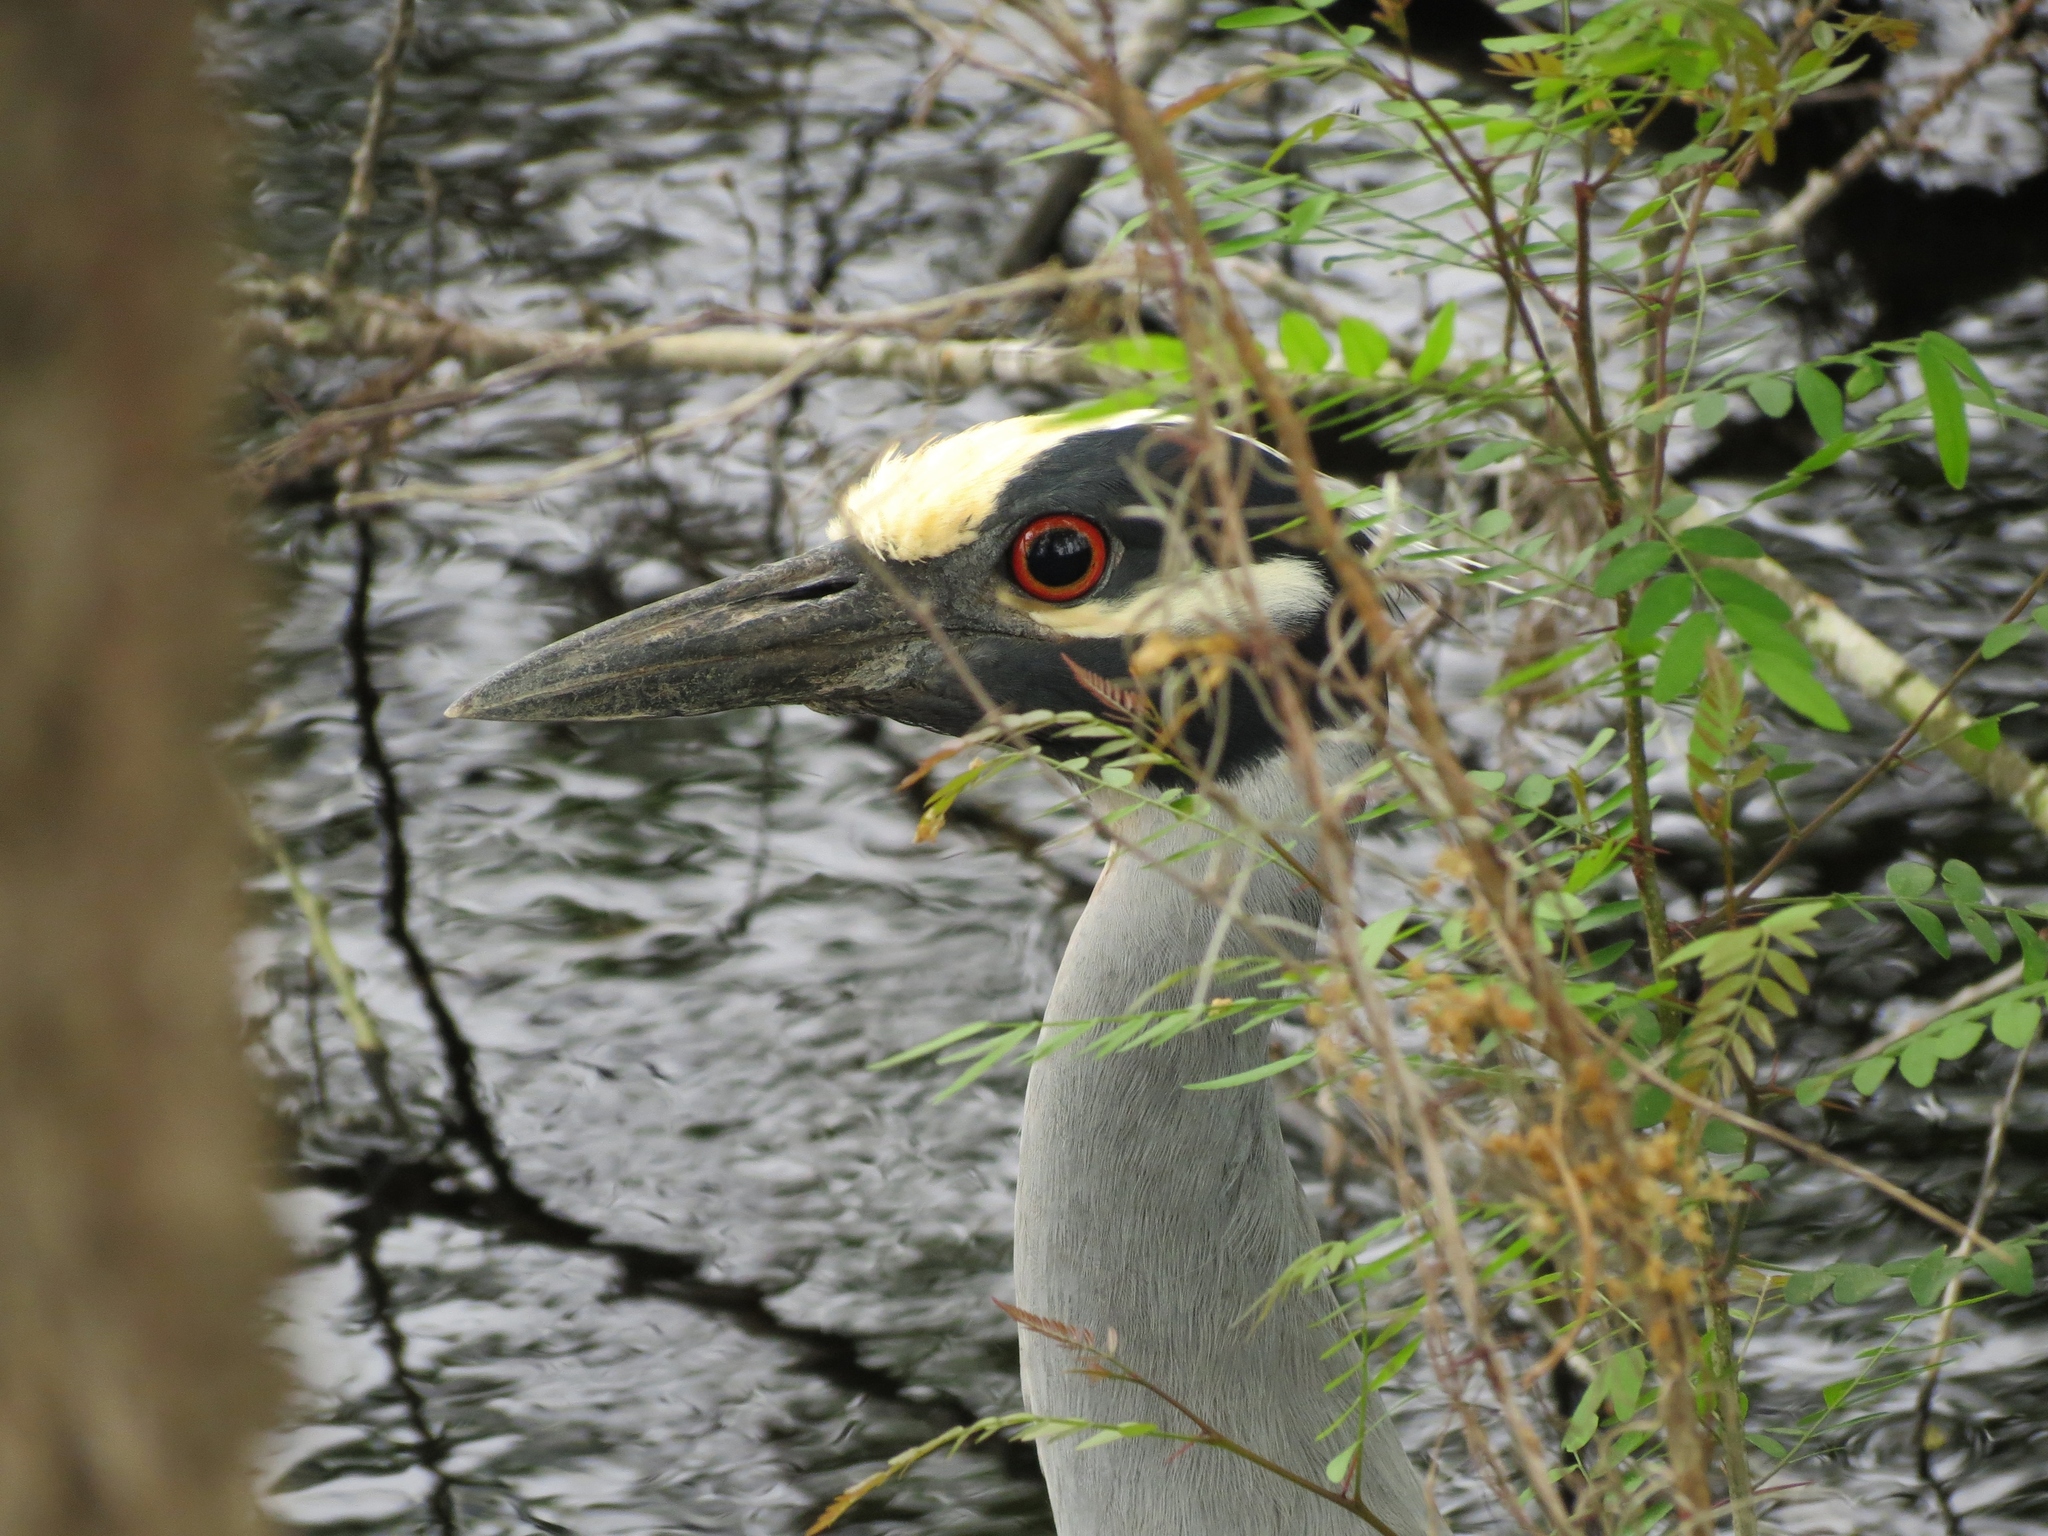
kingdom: Animalia
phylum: Chordata
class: Aves
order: Pelecaniformes
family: Ardeidae
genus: Nyctanassa
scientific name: Nyctanassa violacea
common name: Yellow-crowned night heron
